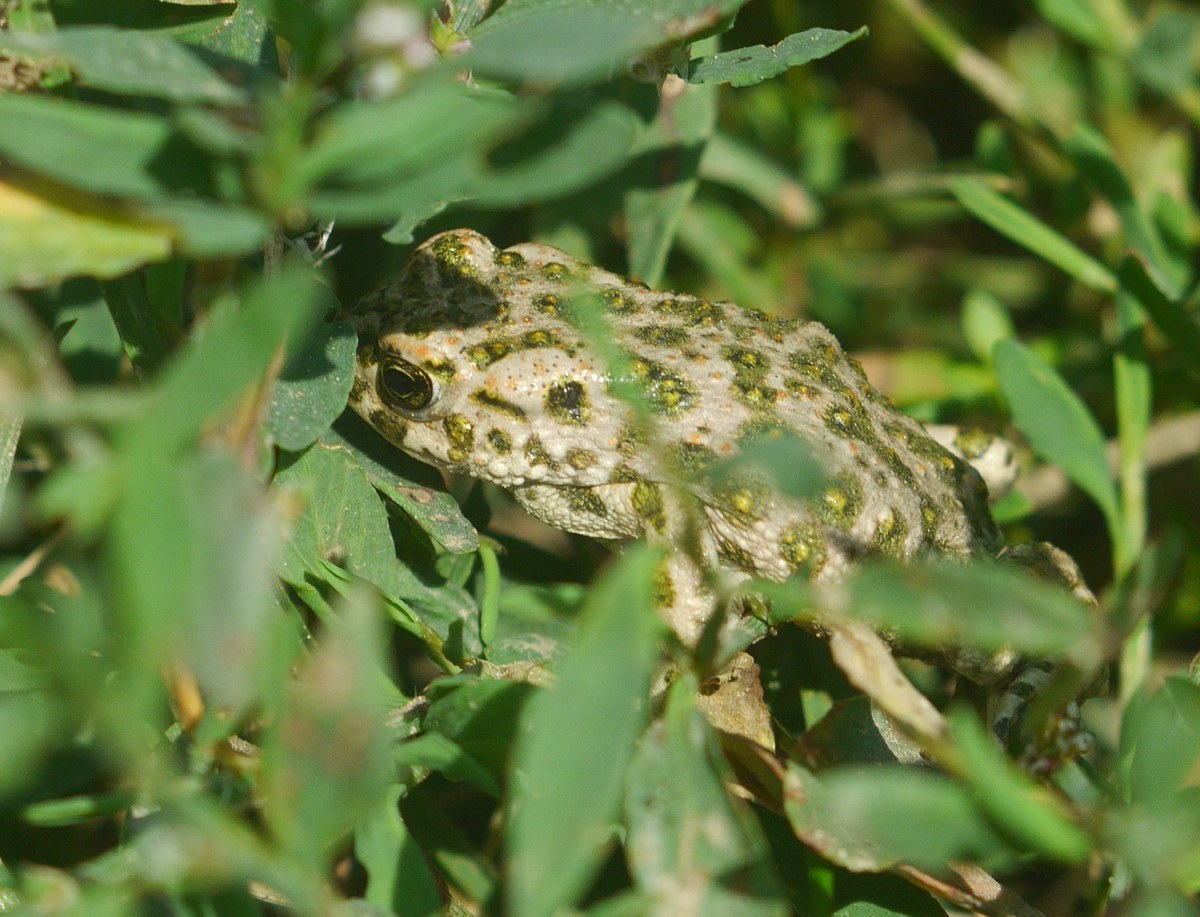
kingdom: Animalia
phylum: Chordata
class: Amphibia
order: Anura
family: Bufonidae
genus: Bufotes
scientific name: Bufotes viridis
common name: European green toad
